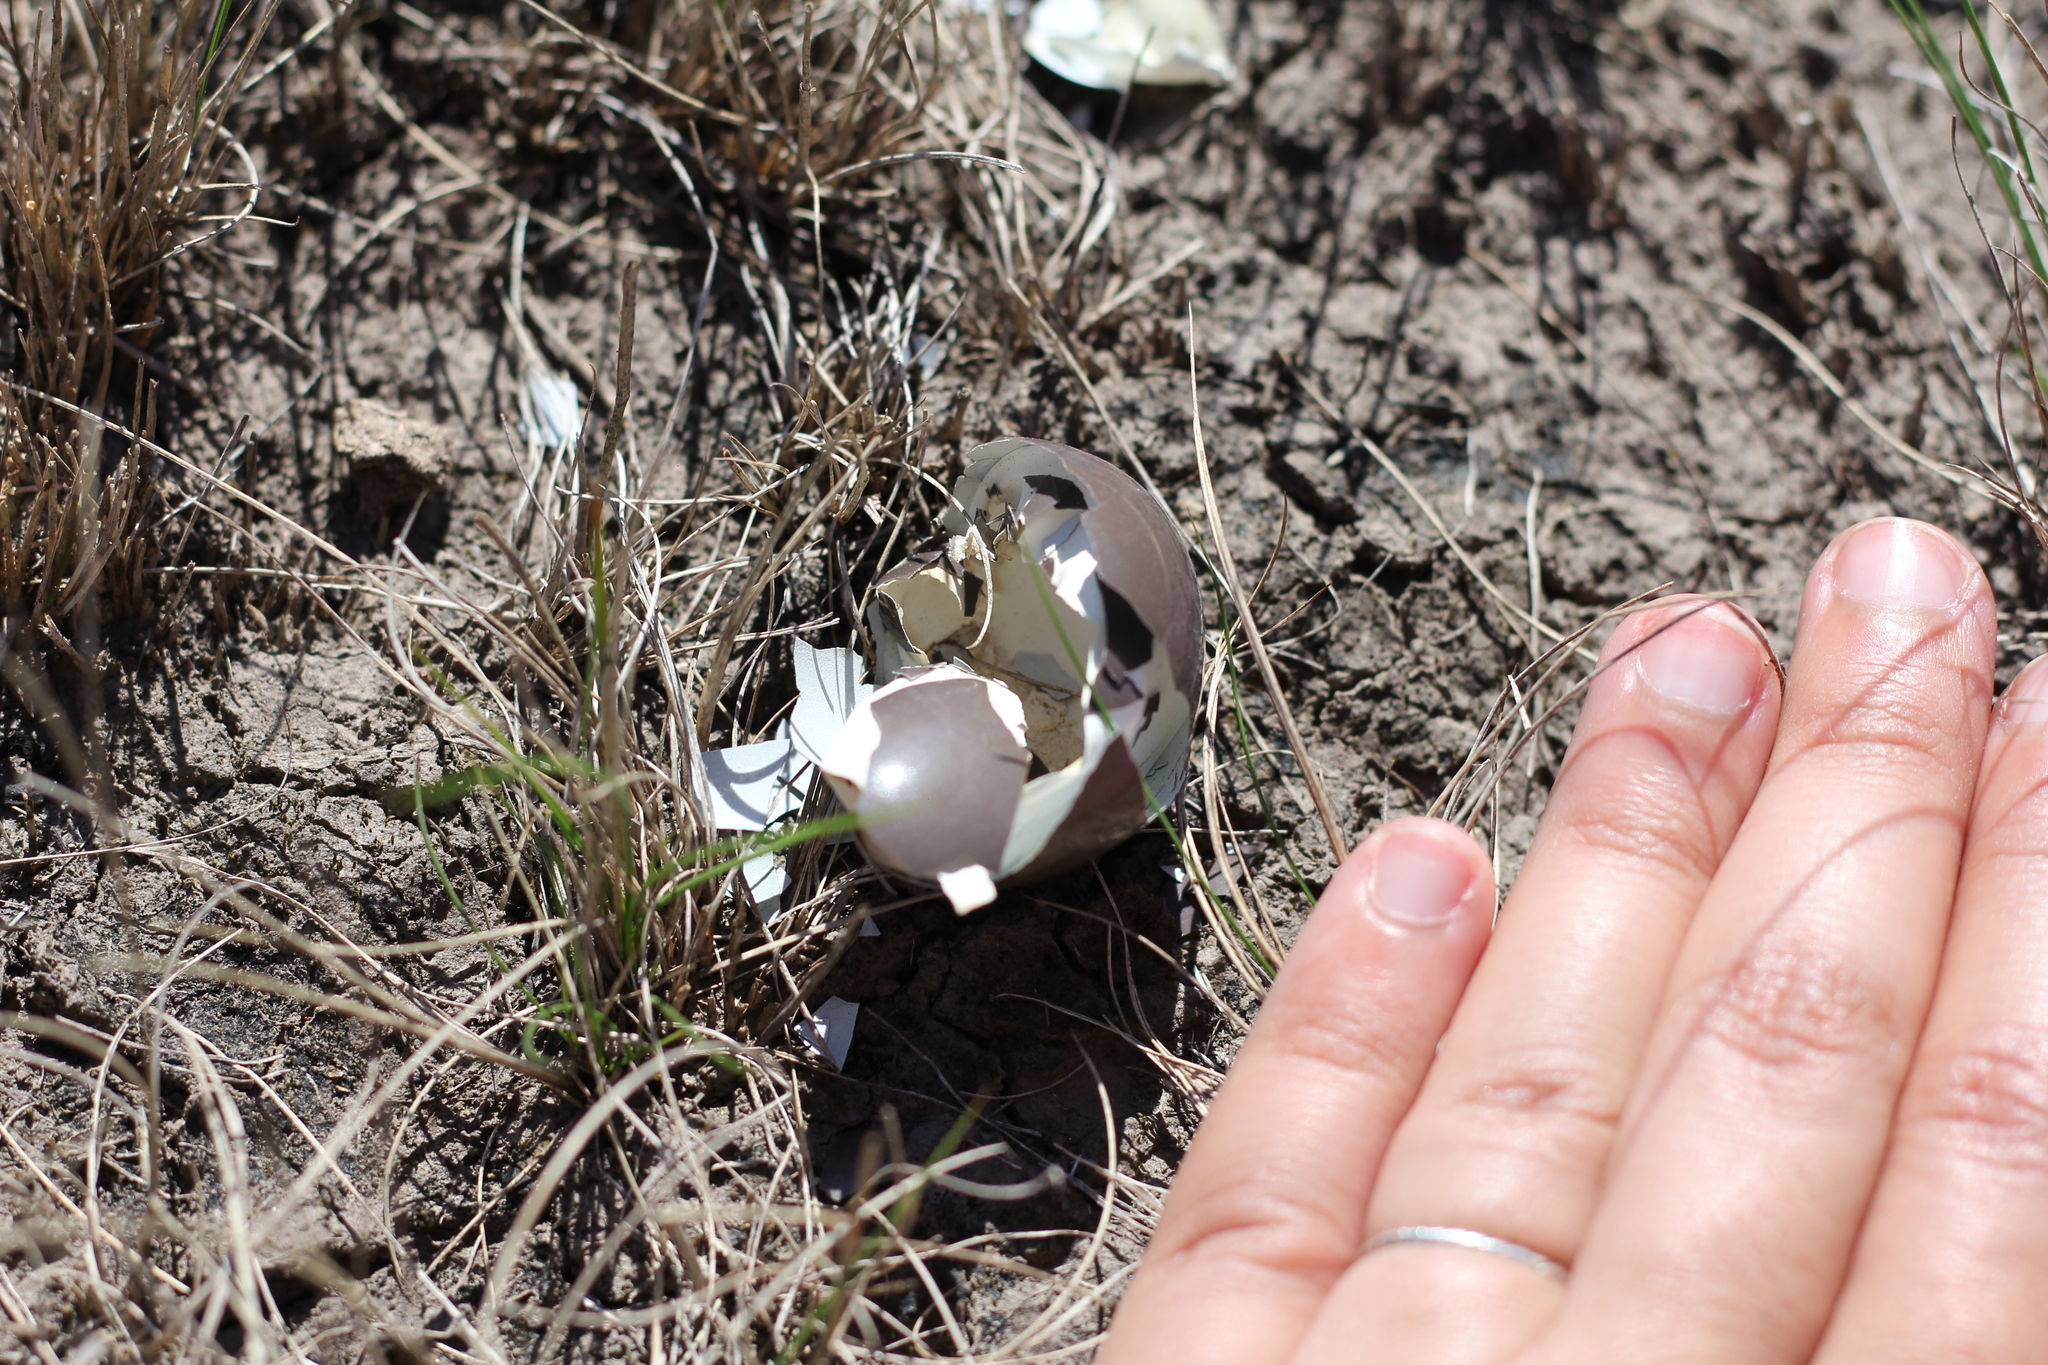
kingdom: Animalia
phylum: Chordata
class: Aves
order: Tinamiformes
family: Tinamidae
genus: Nothura
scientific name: Nothura maculosa
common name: Spotted nothura
